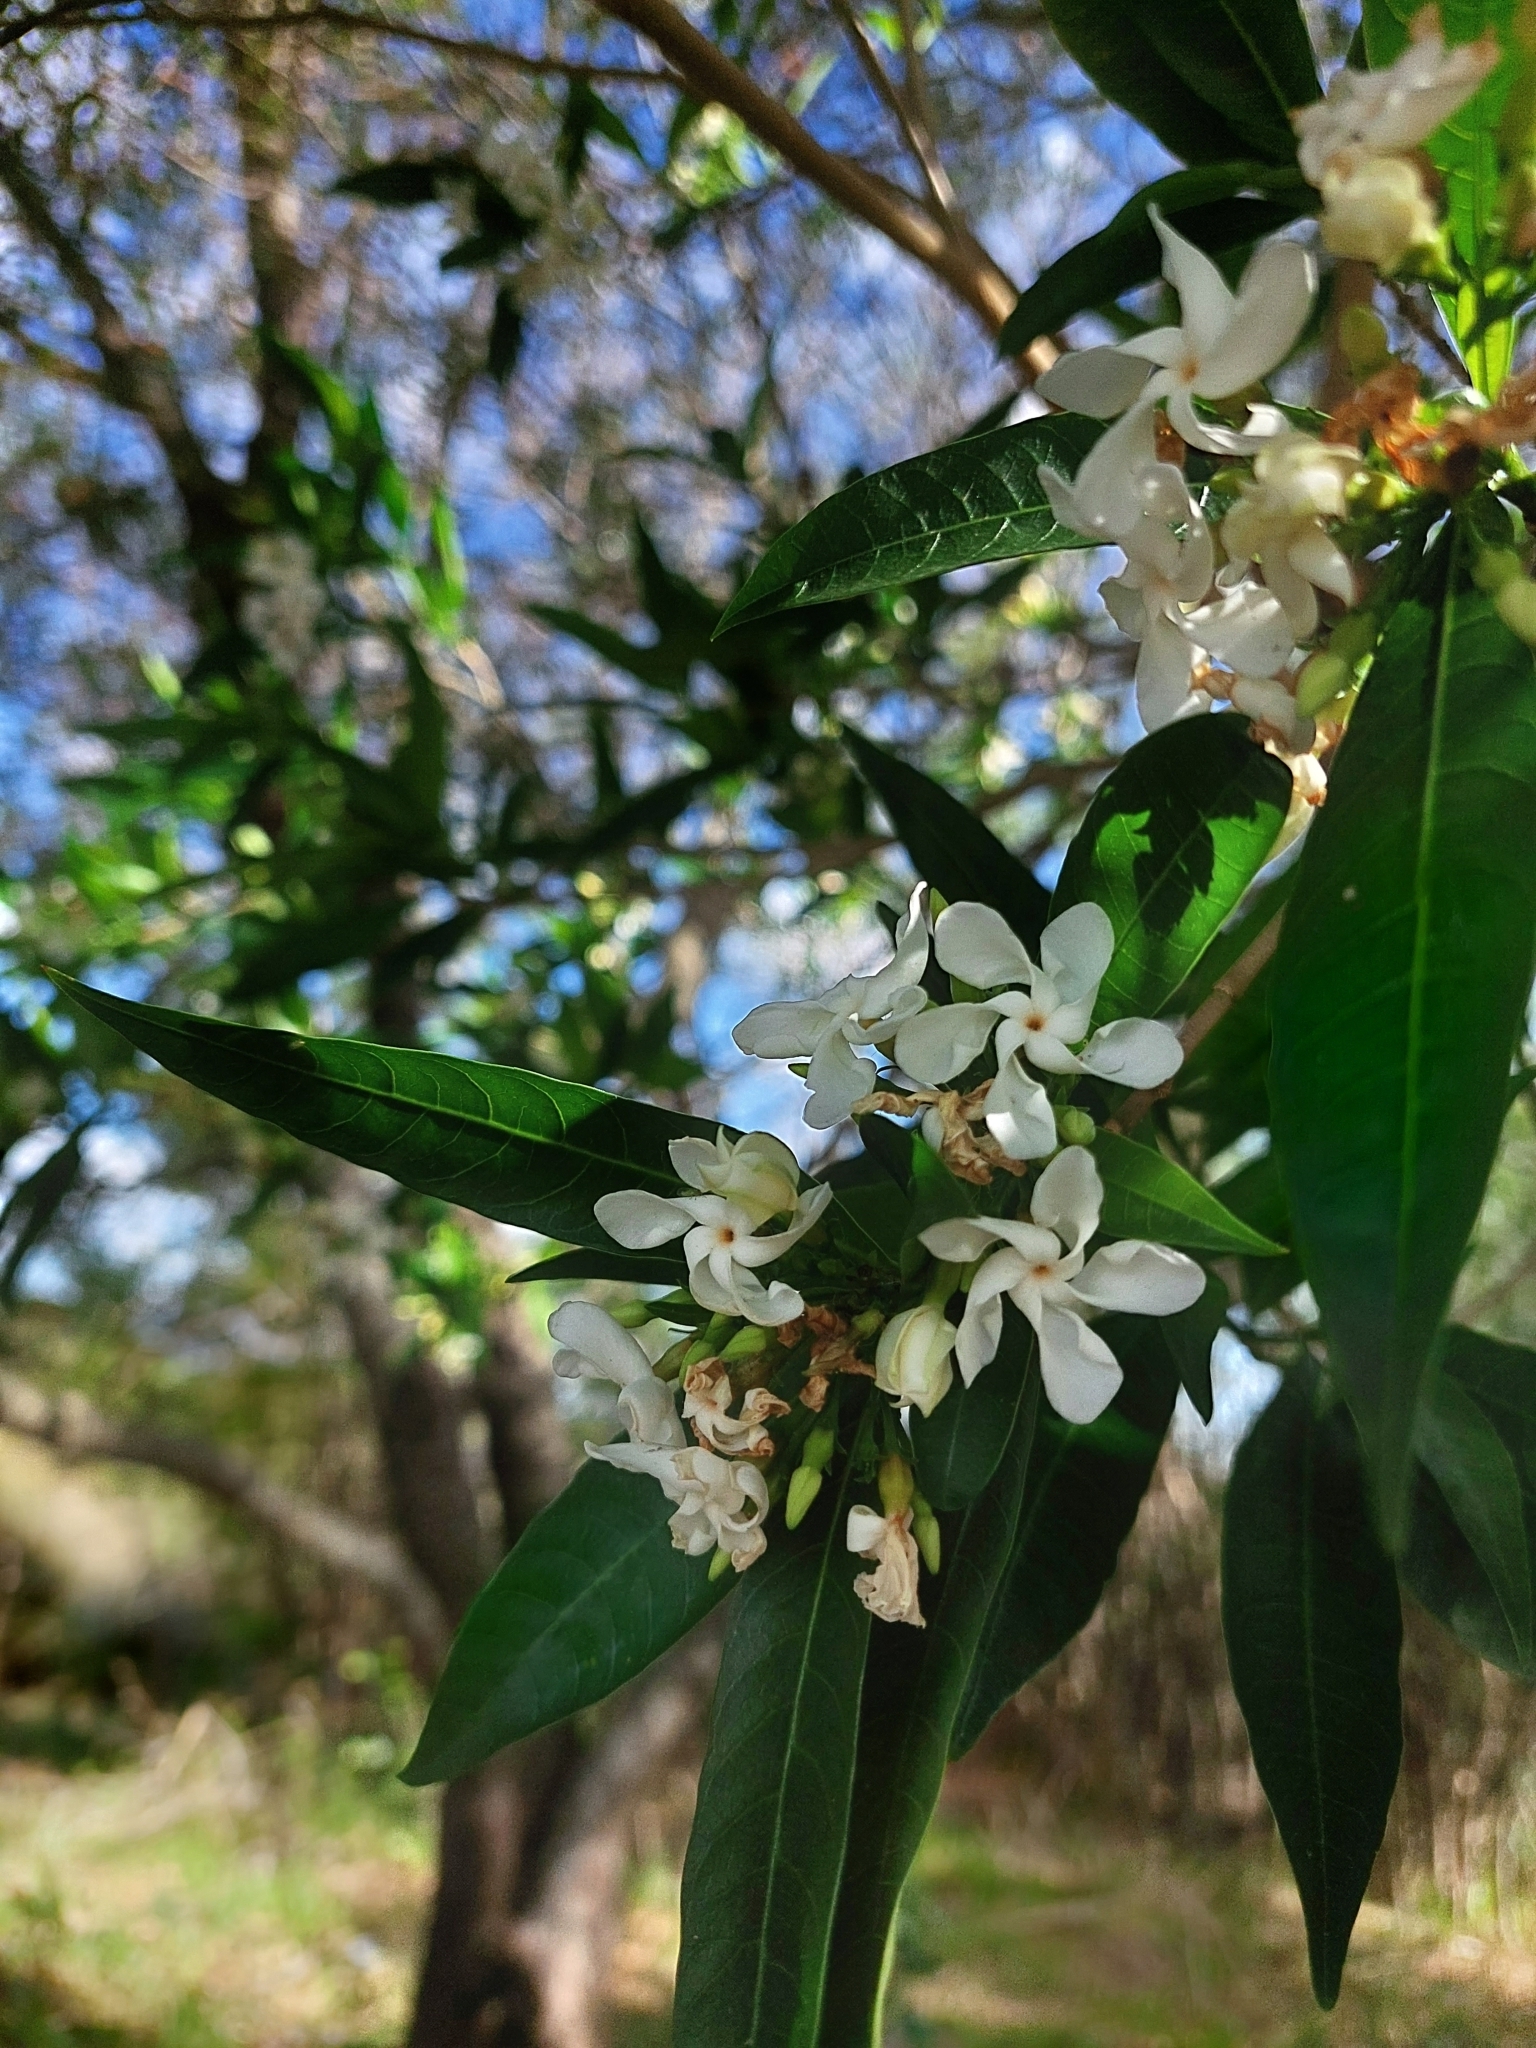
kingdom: Plantae
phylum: Tracheophyta
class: Magnoliopsida
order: Gentianales
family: Apocynaceae
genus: Tabernaemontana
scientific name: Tabernaemontana catharinensis
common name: Pinwheel-flower
